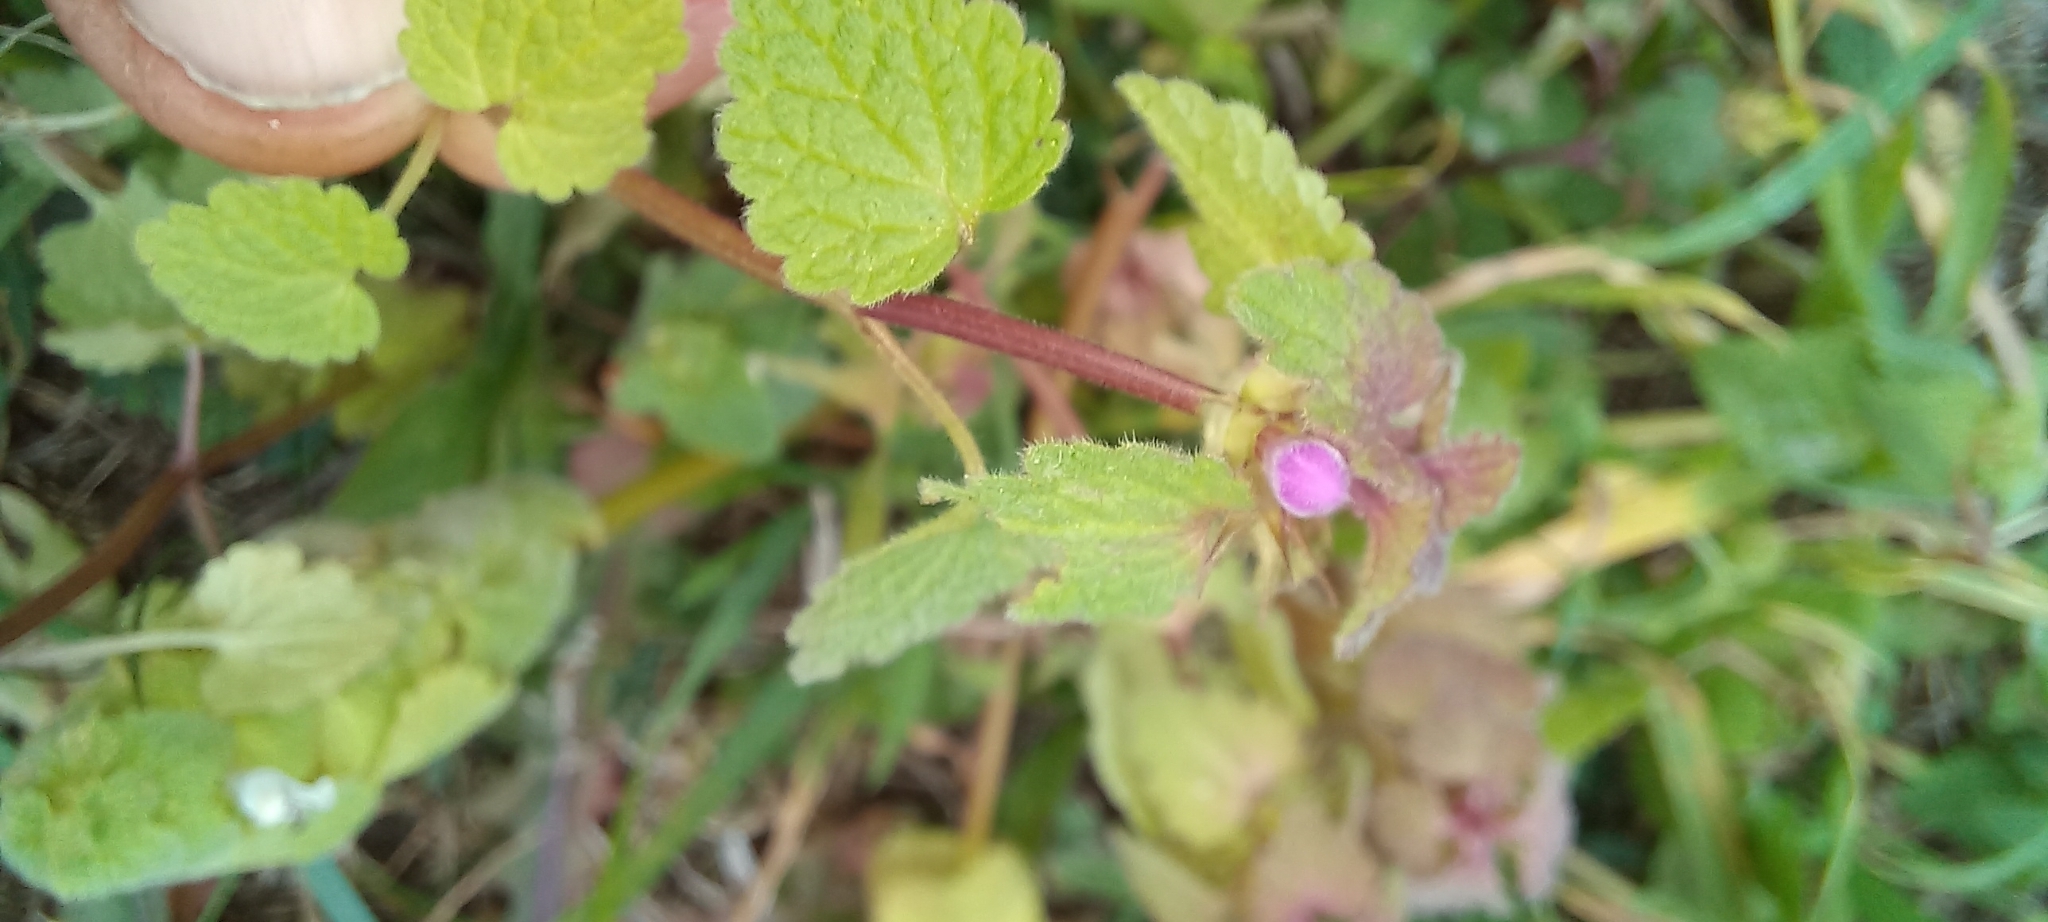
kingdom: Plantae
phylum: Tracheophyta
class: Magnoliopsida
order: Lamiales
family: Lamiaceae
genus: Lamium
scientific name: Lamium purpureum
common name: Red dead-nettle
